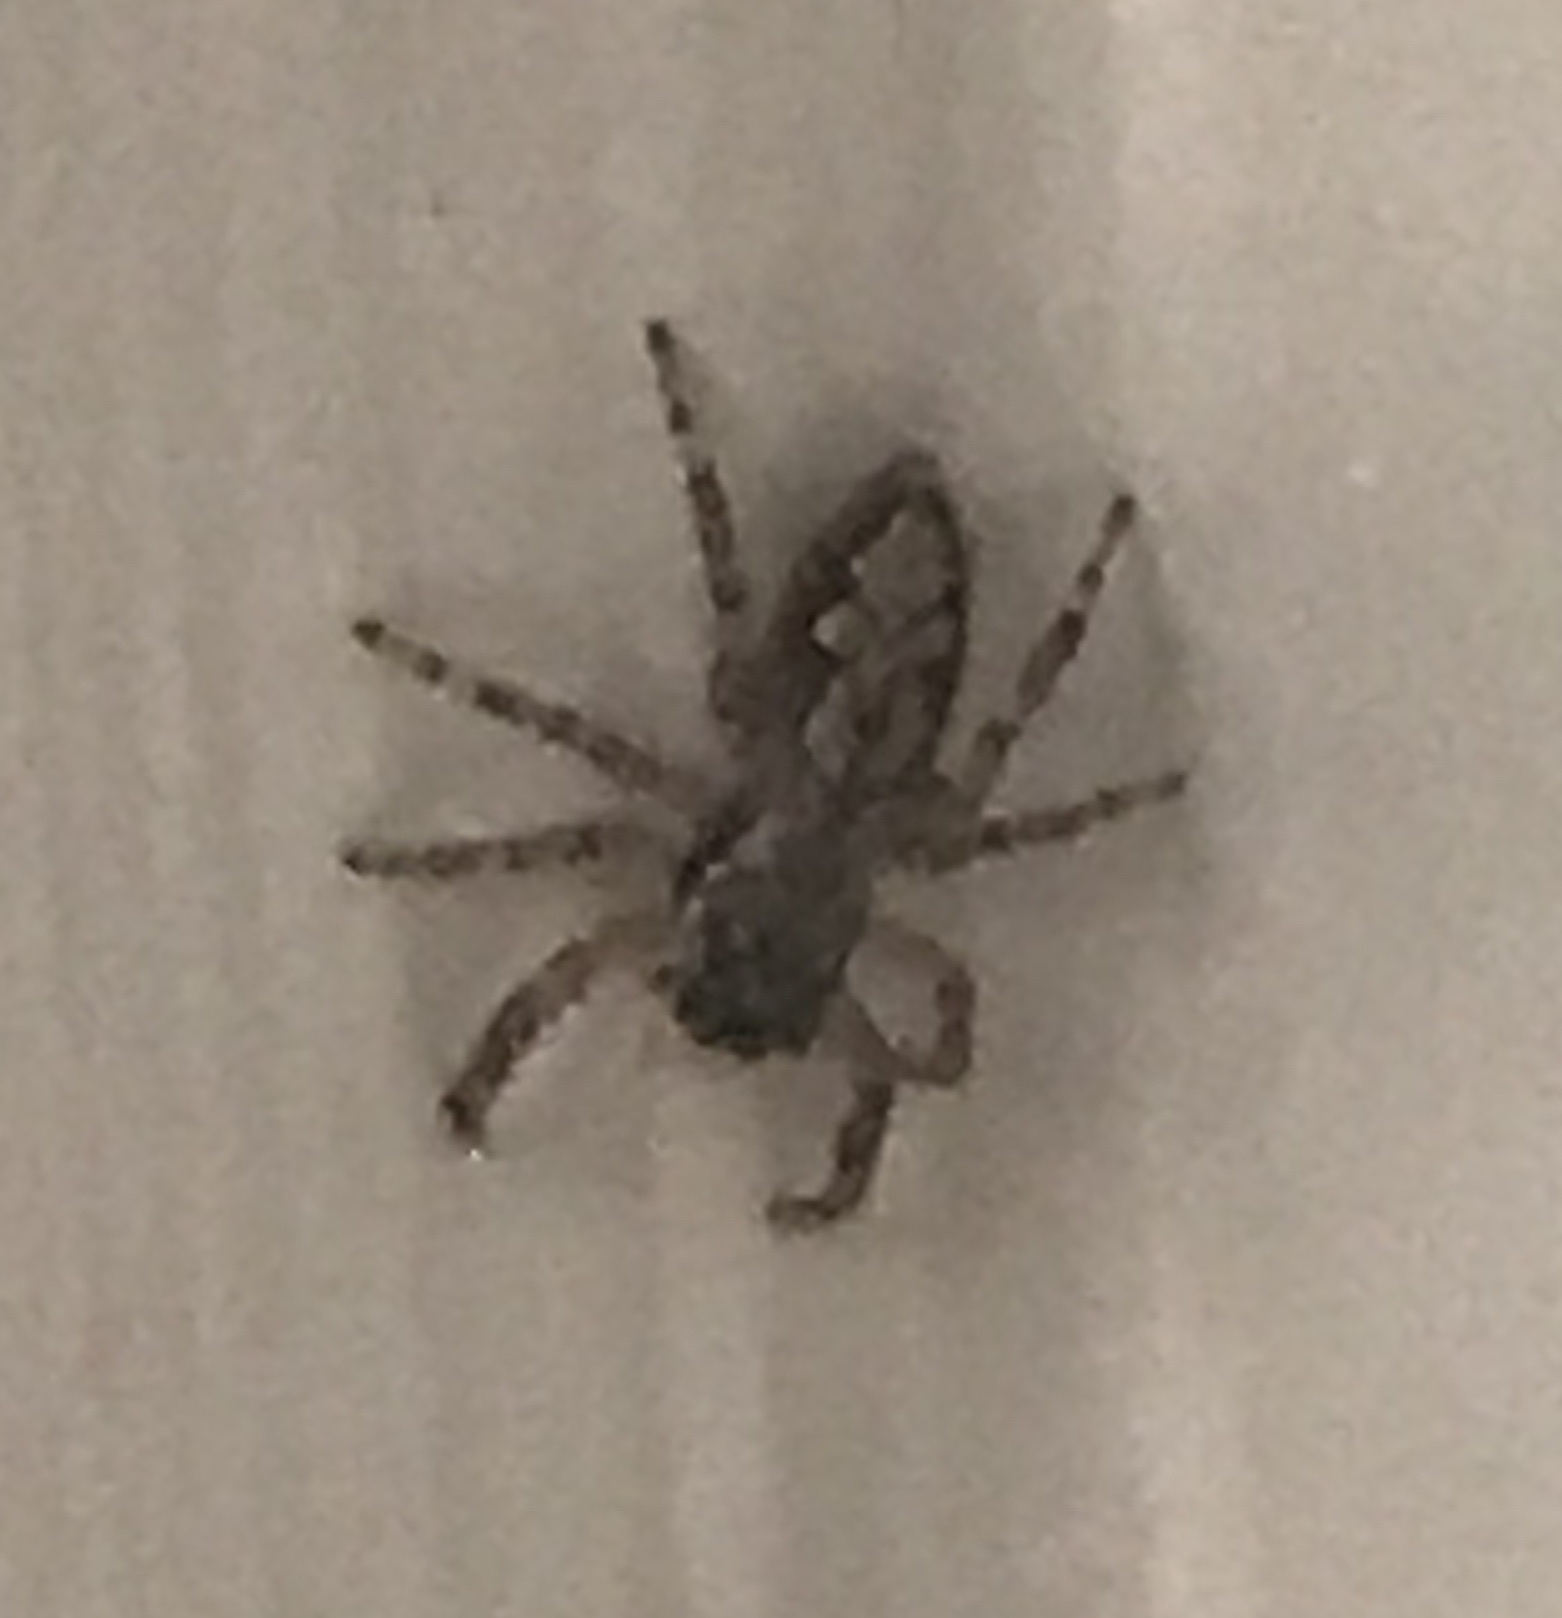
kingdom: Animalia
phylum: Arthropoda
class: Arachnida
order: Araneae
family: Salticidae
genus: Platycryptus
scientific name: Platycryptus undatus
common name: Tan jumping spider
